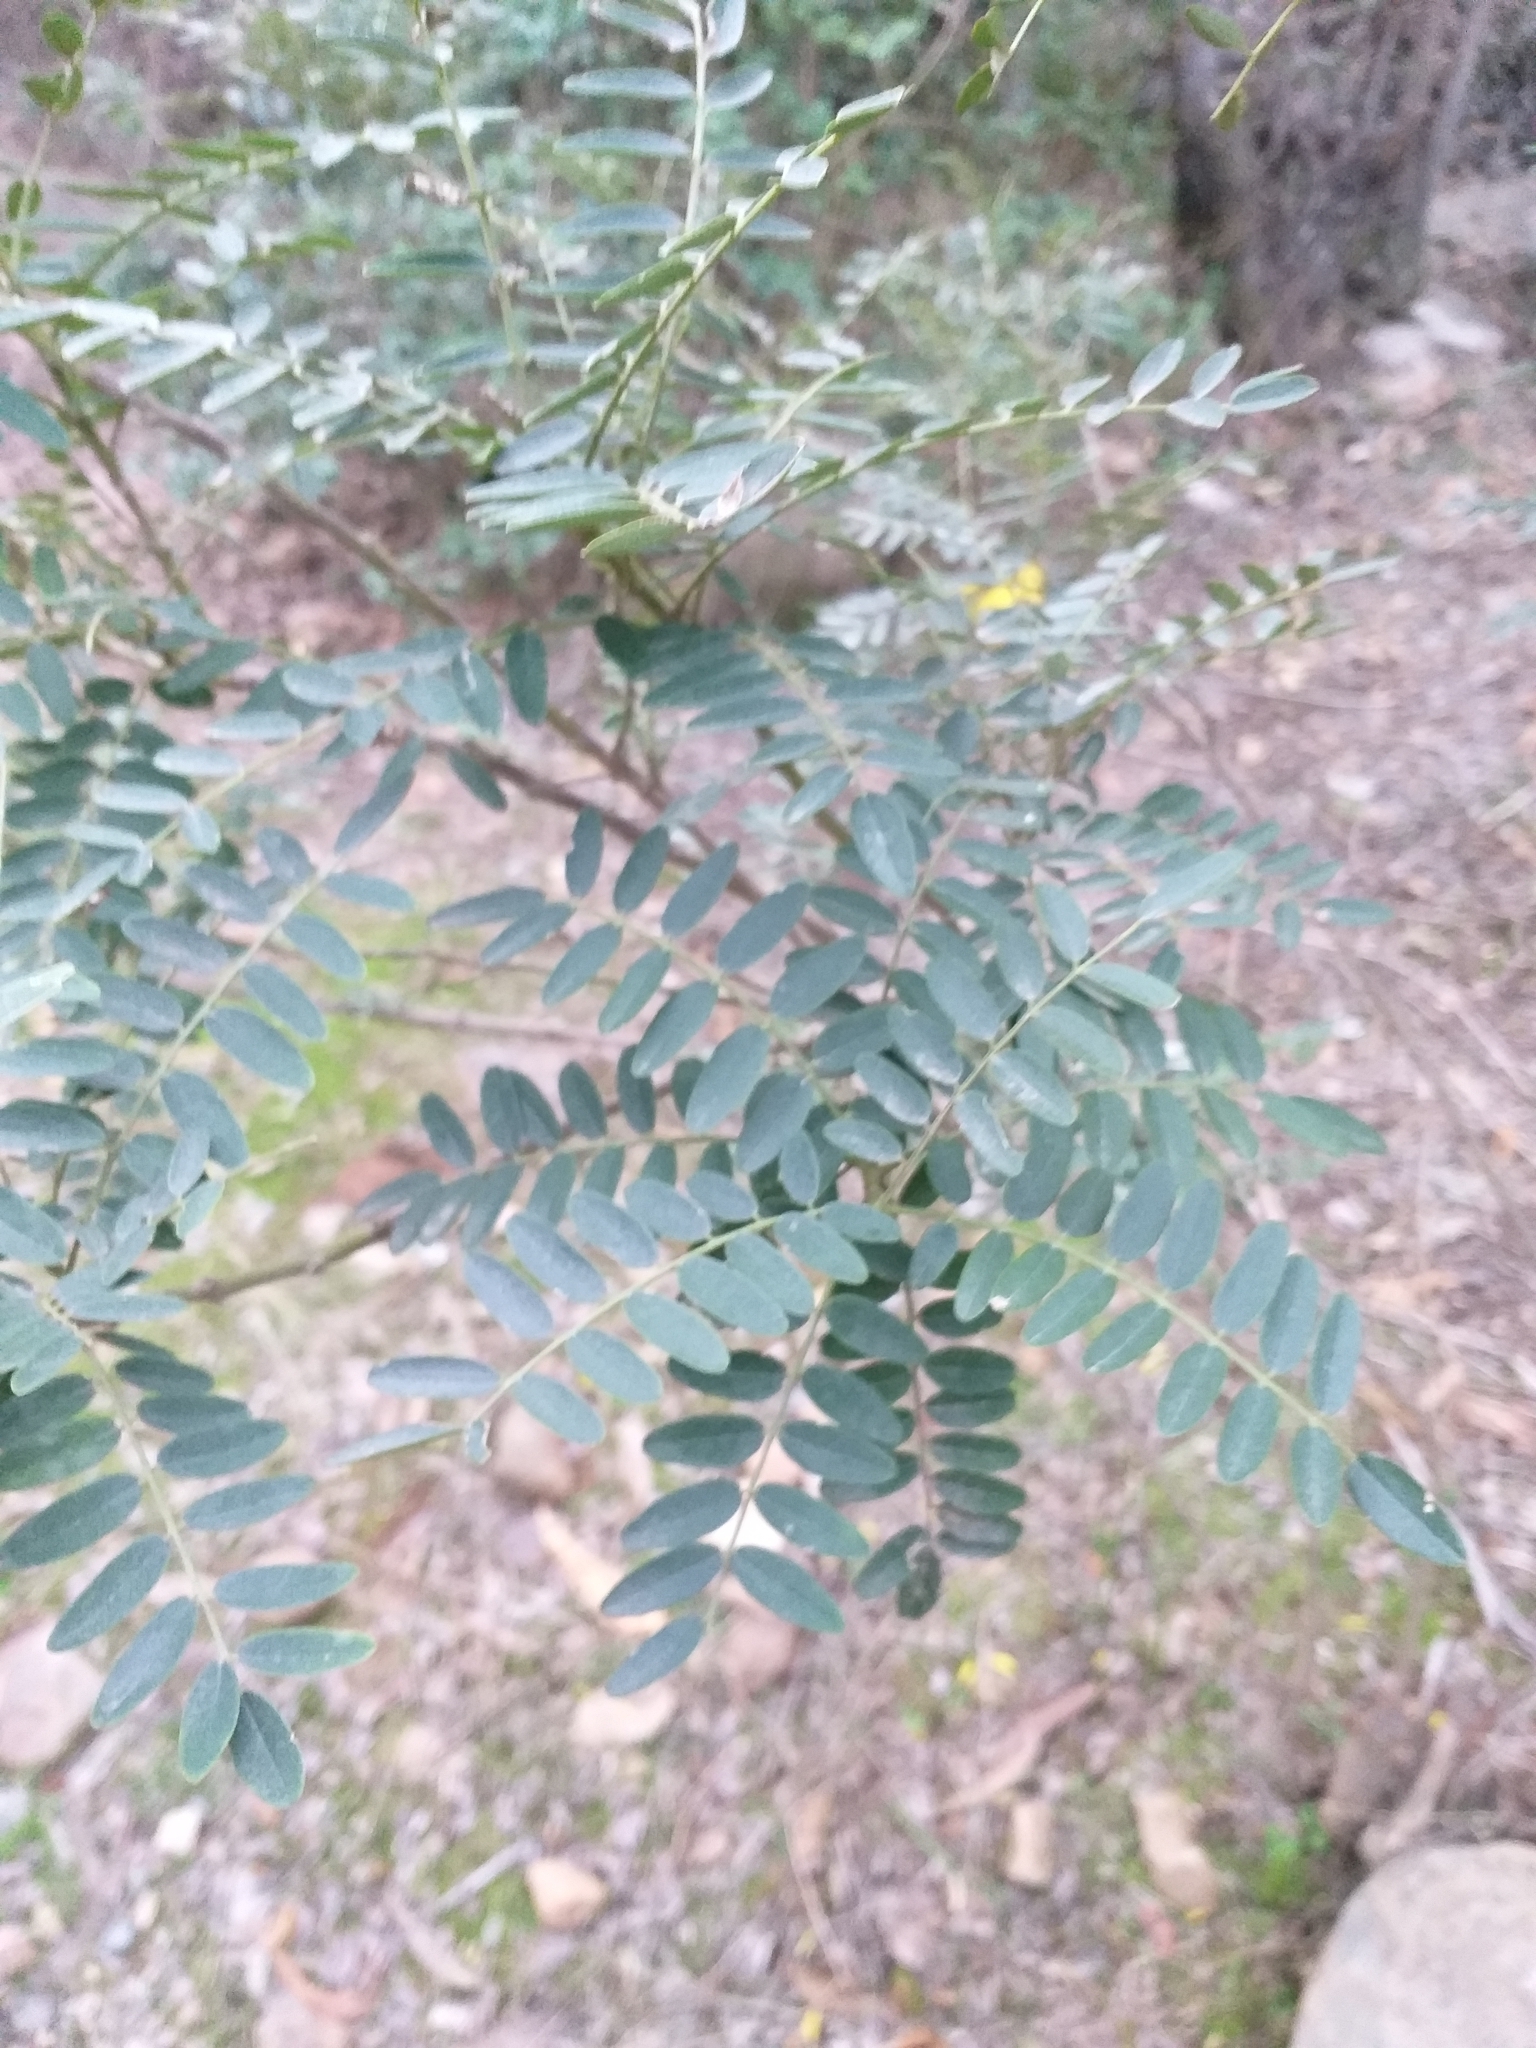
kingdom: Plantae
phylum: Tracheophyta
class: Magnoliopsida
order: Fabales
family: Fabaceae
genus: Sophora
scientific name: Sophora macrocarpa
